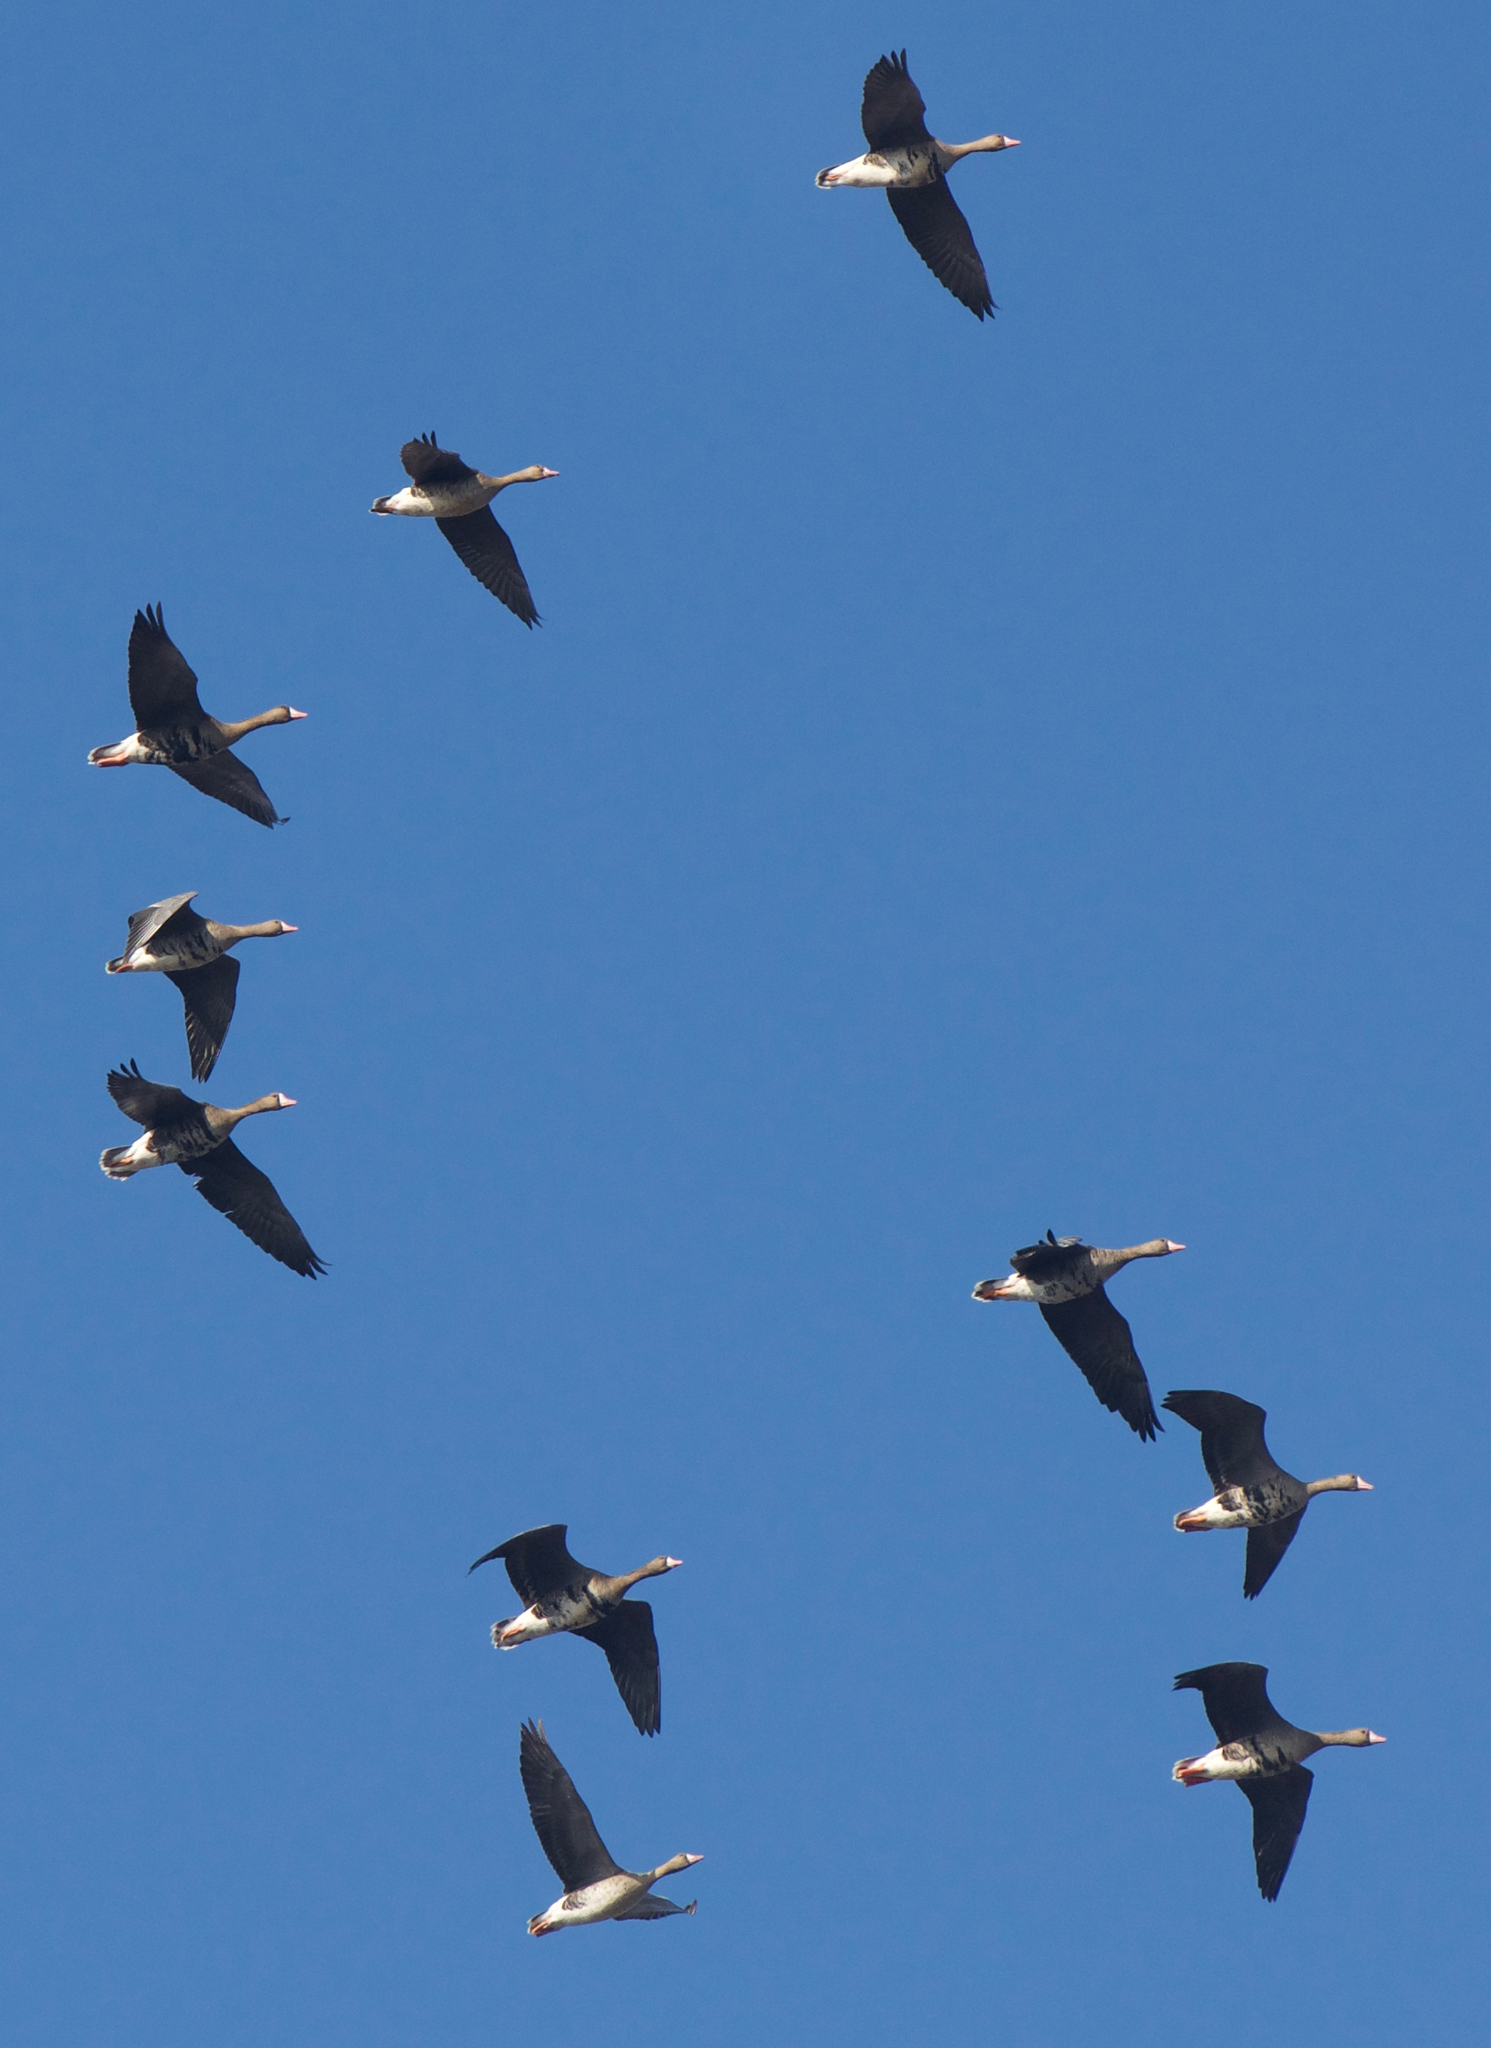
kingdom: Animalia
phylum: Chordata
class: Aves
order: Anseriformes
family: Anatidae
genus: Anser
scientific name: Anser albifrons
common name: Greater white-fronted goose
